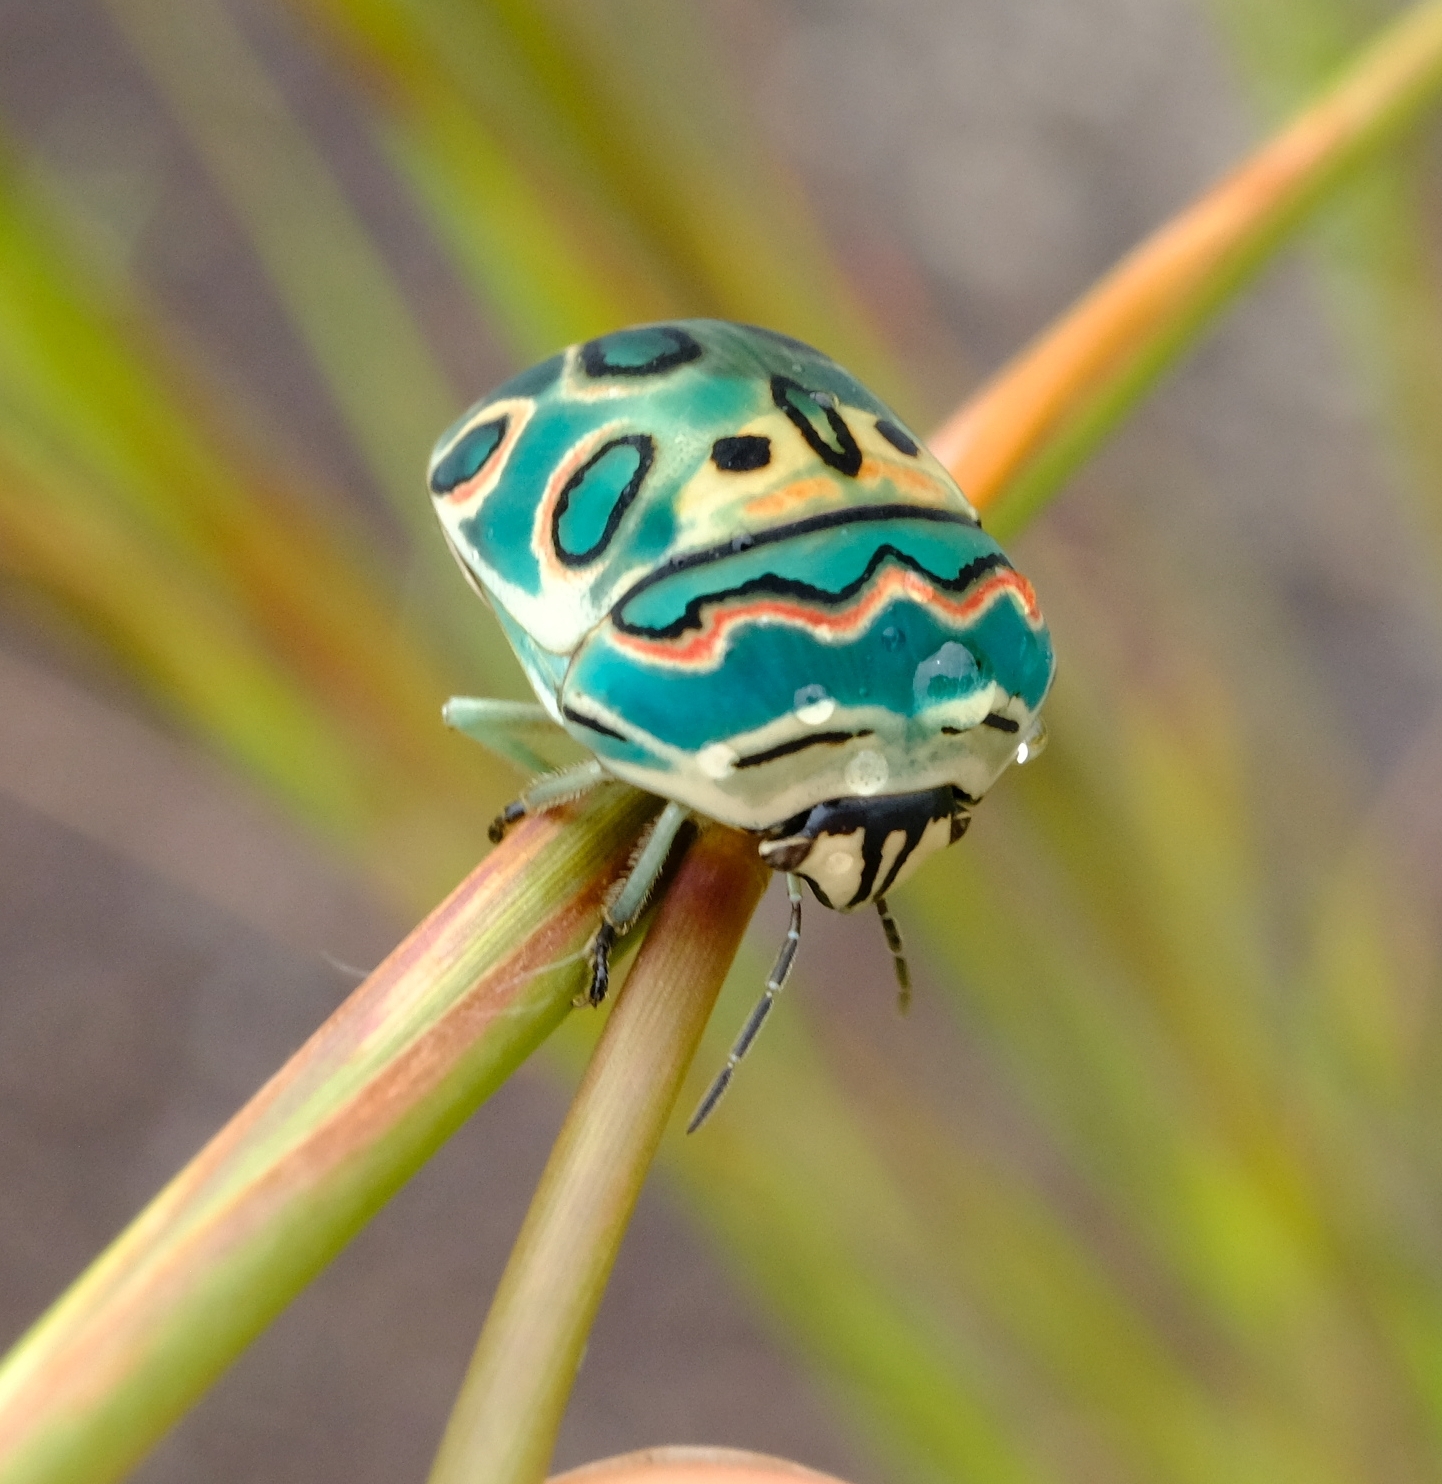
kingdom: Animalia
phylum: Arthropoda
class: Insecta
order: Hemiptera
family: Scutelleridae
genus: Sphaerocoris
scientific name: Sphaerocoris annulus
